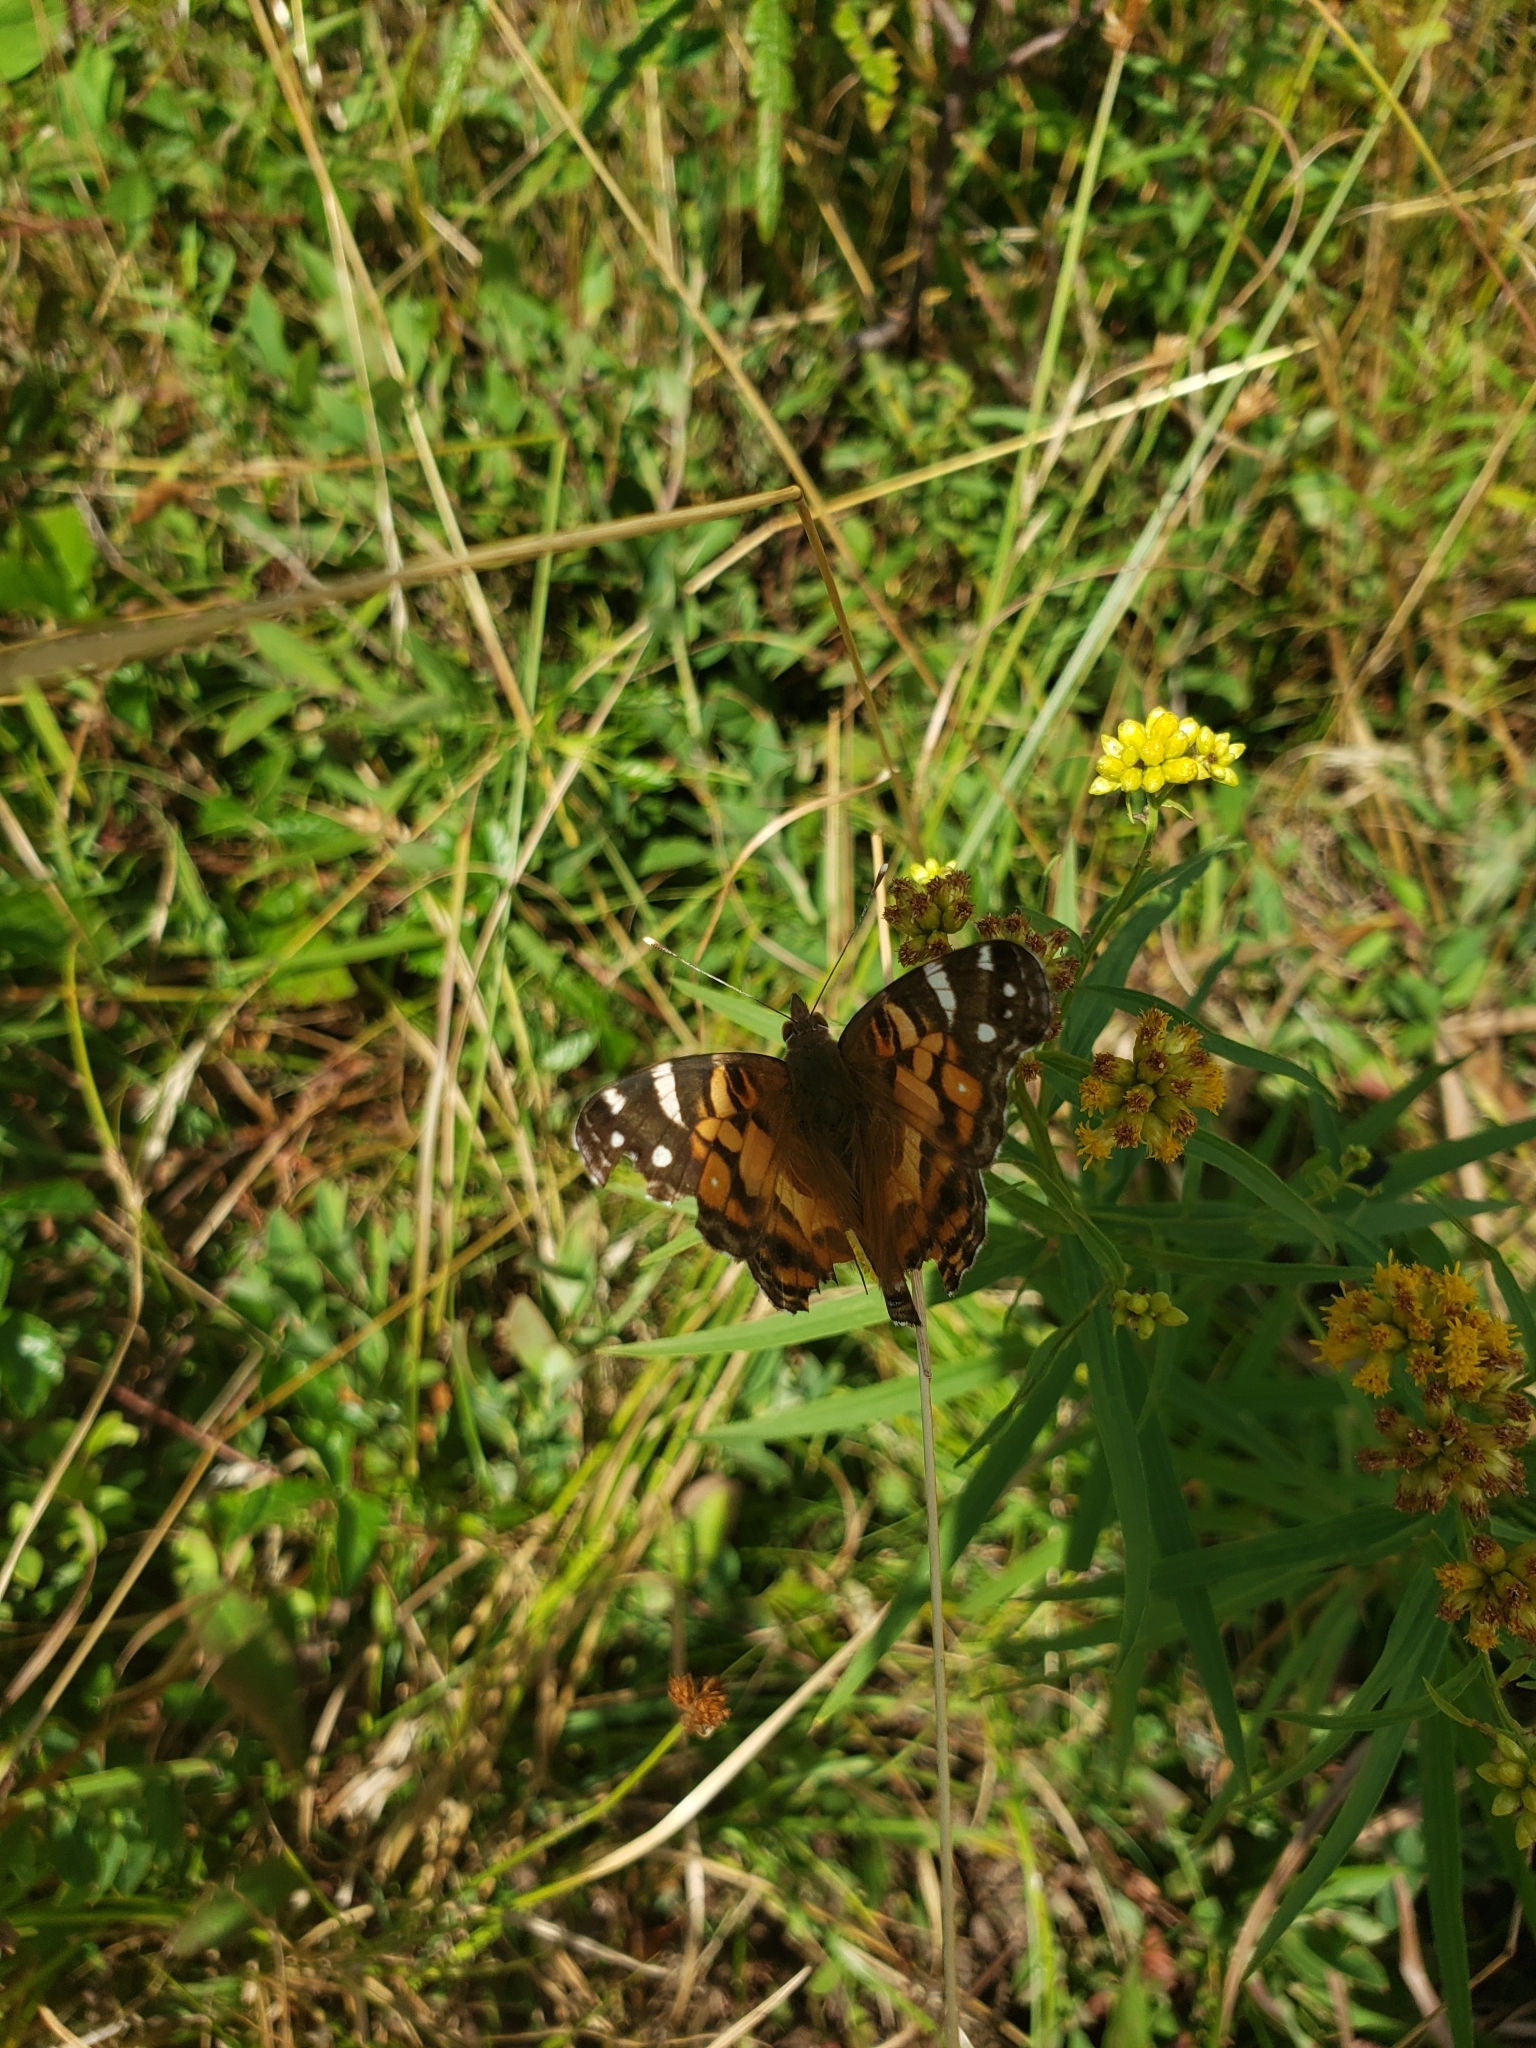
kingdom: Animalia
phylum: Arthropoda
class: Insecta
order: Lepidoptera
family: Nymphalidae
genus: Vanessa
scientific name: Vanessa virginiensis
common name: American lady
